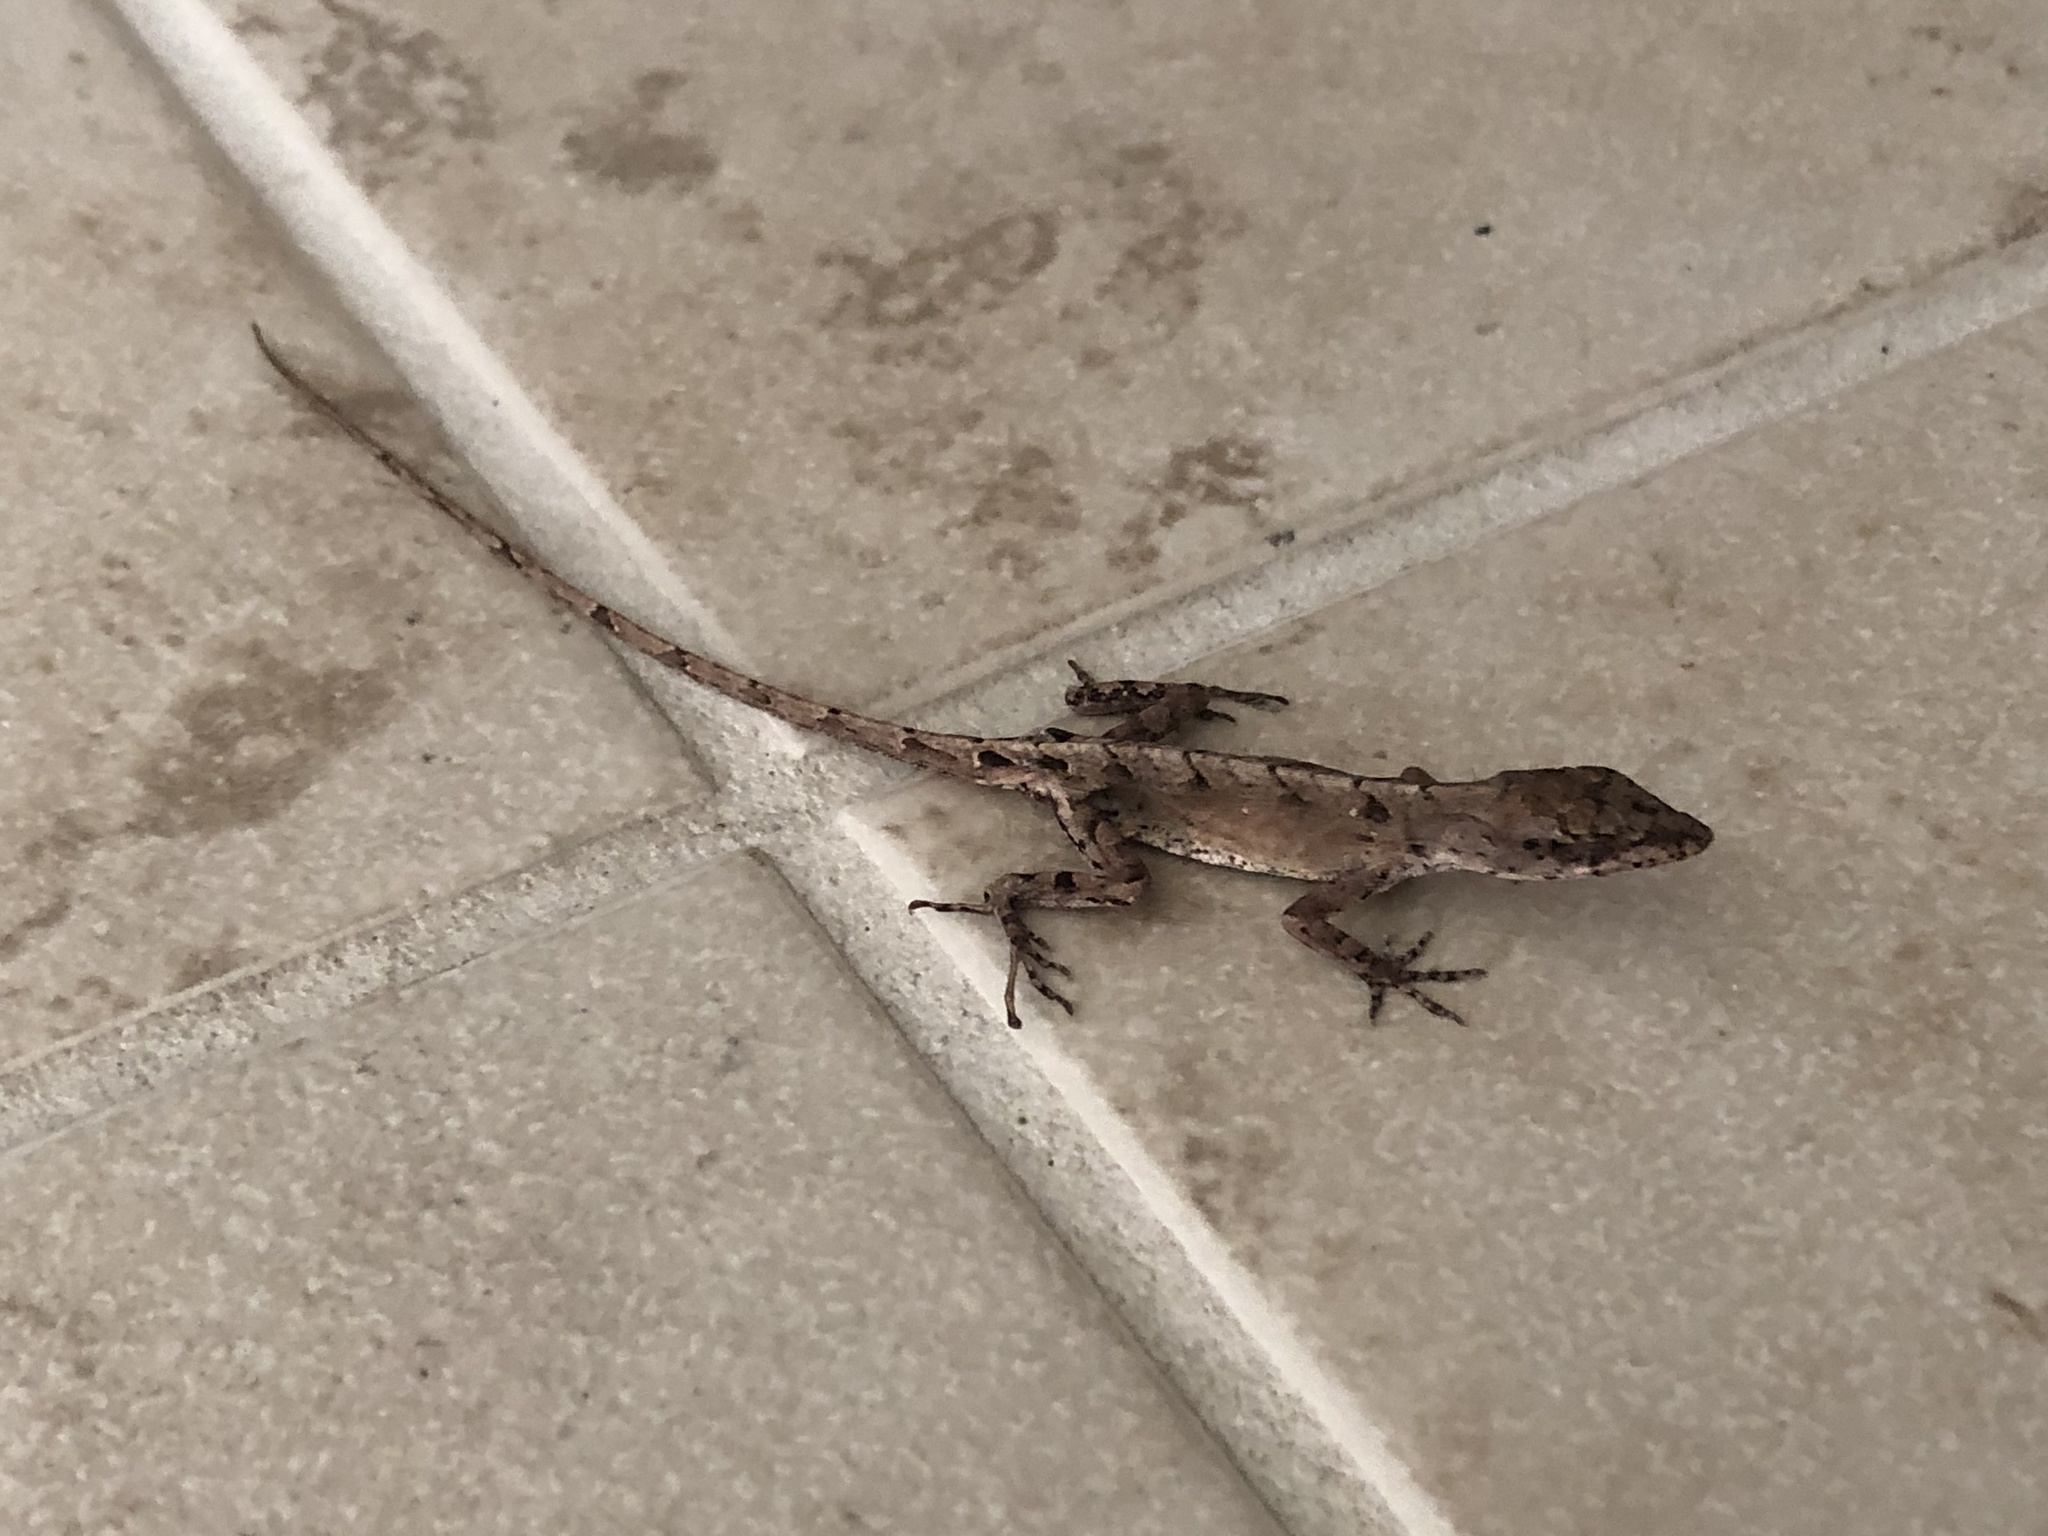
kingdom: Animalia
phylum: Chordata
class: Squamata
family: Dactyloidae
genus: Anolis
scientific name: Anolis sagrei
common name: Brown anole
